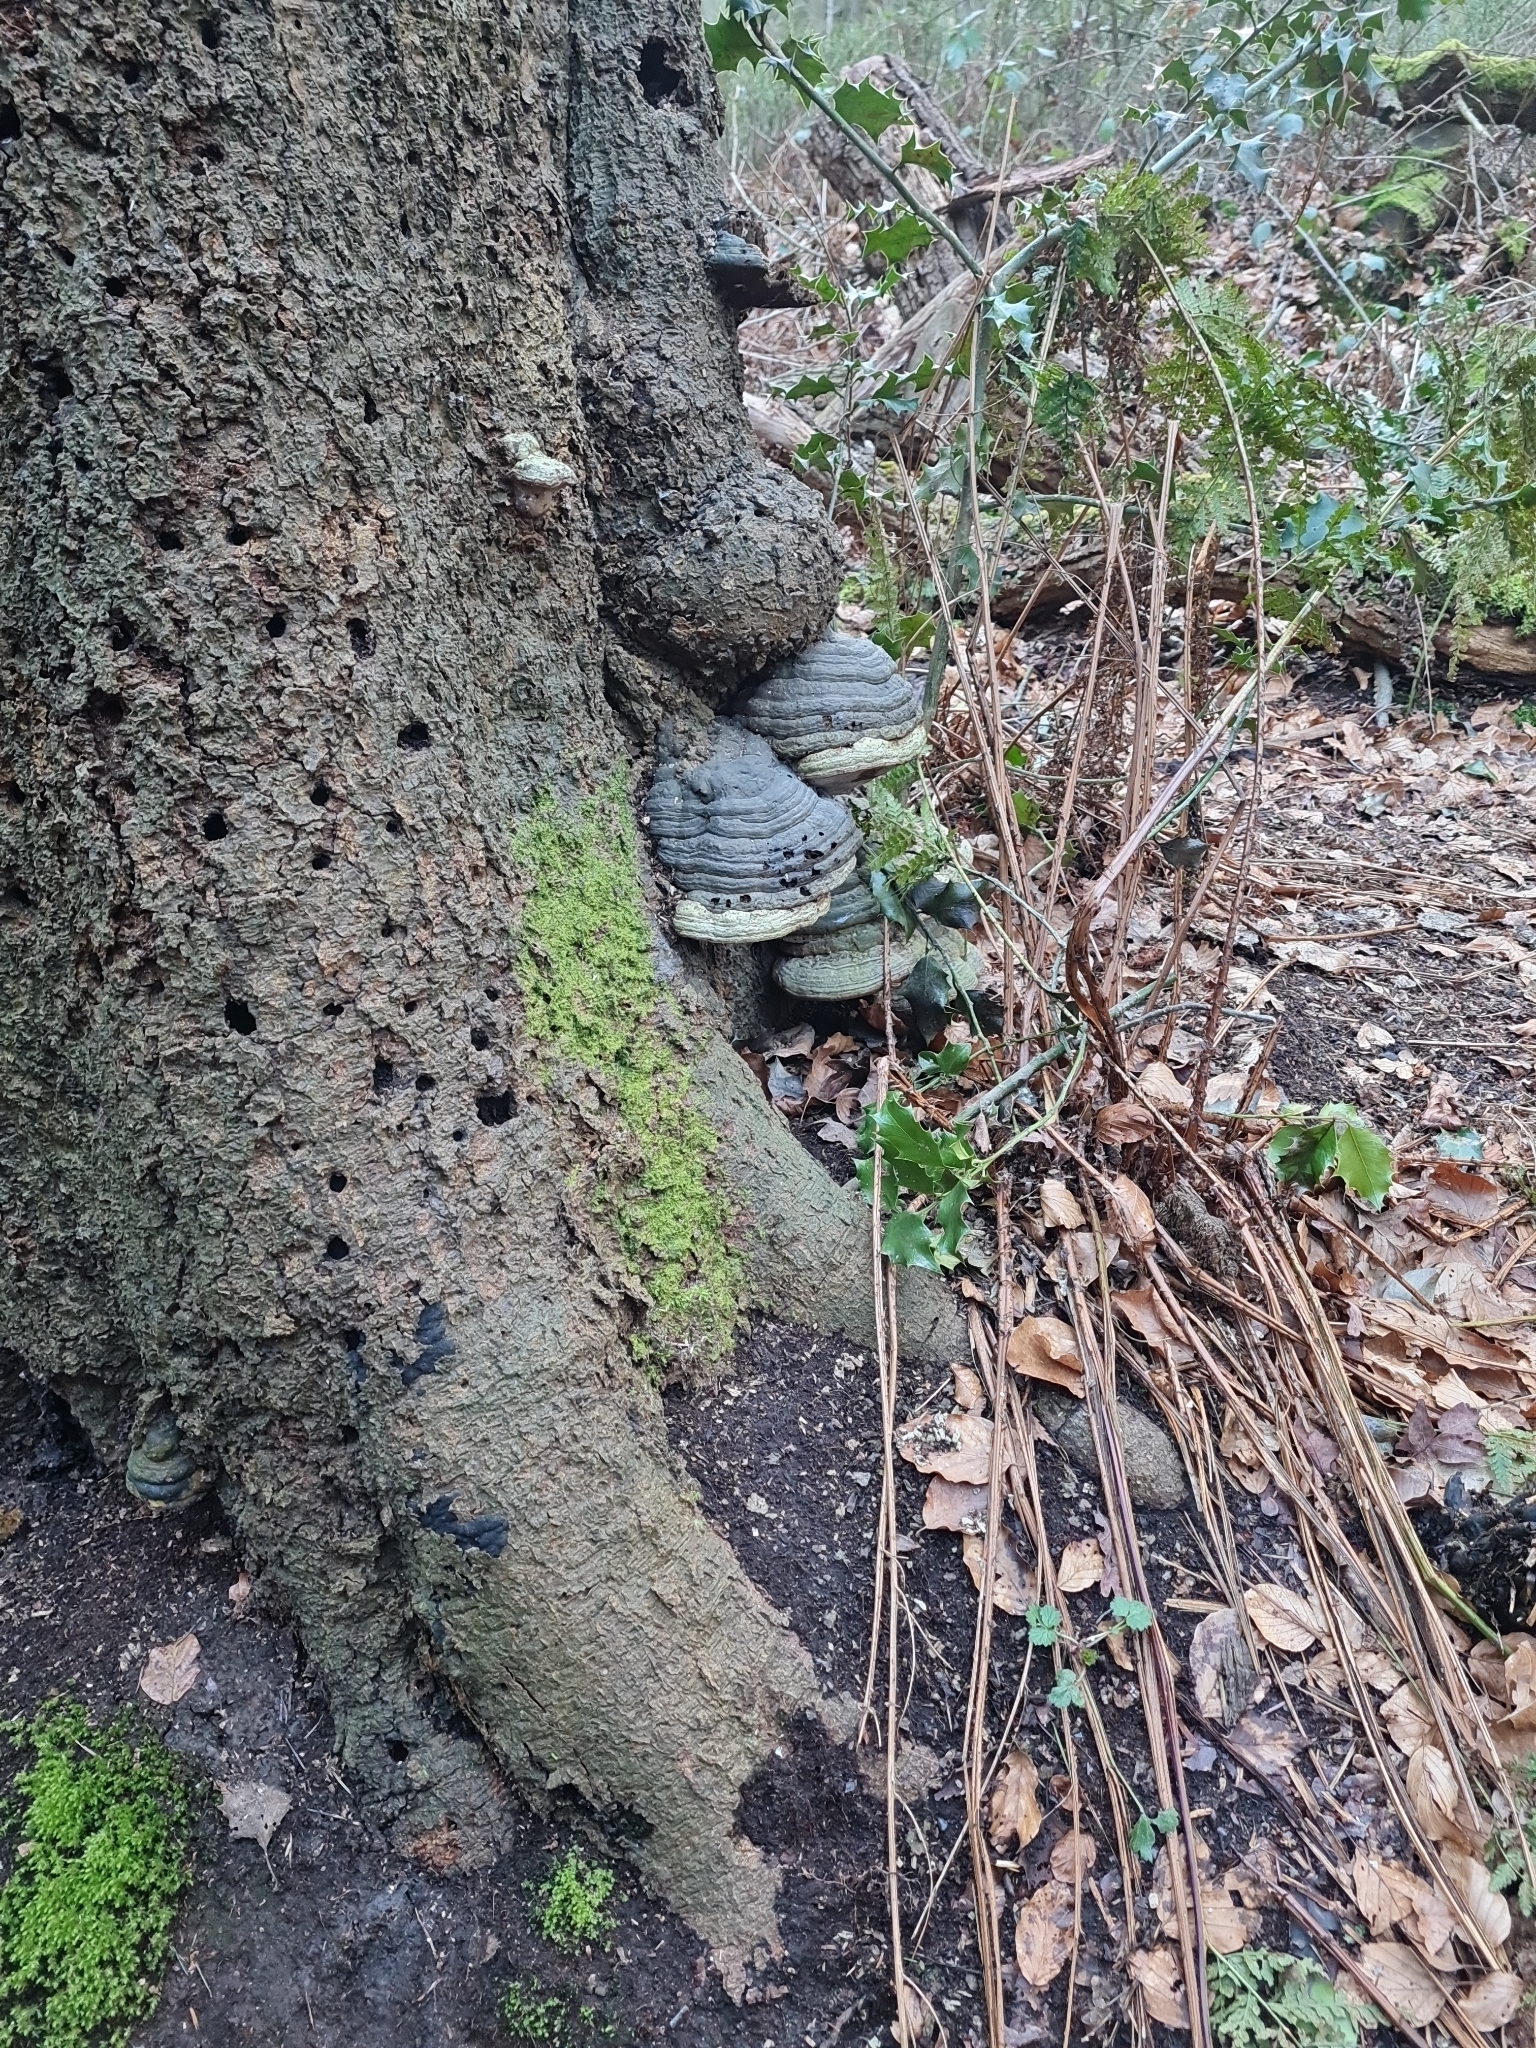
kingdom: Fungi
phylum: Basidiomycota
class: Agaricomycetes
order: Polyporales
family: Polyporaceae
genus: Fomes
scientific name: Fomes fomentarius
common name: Hoof fungus
